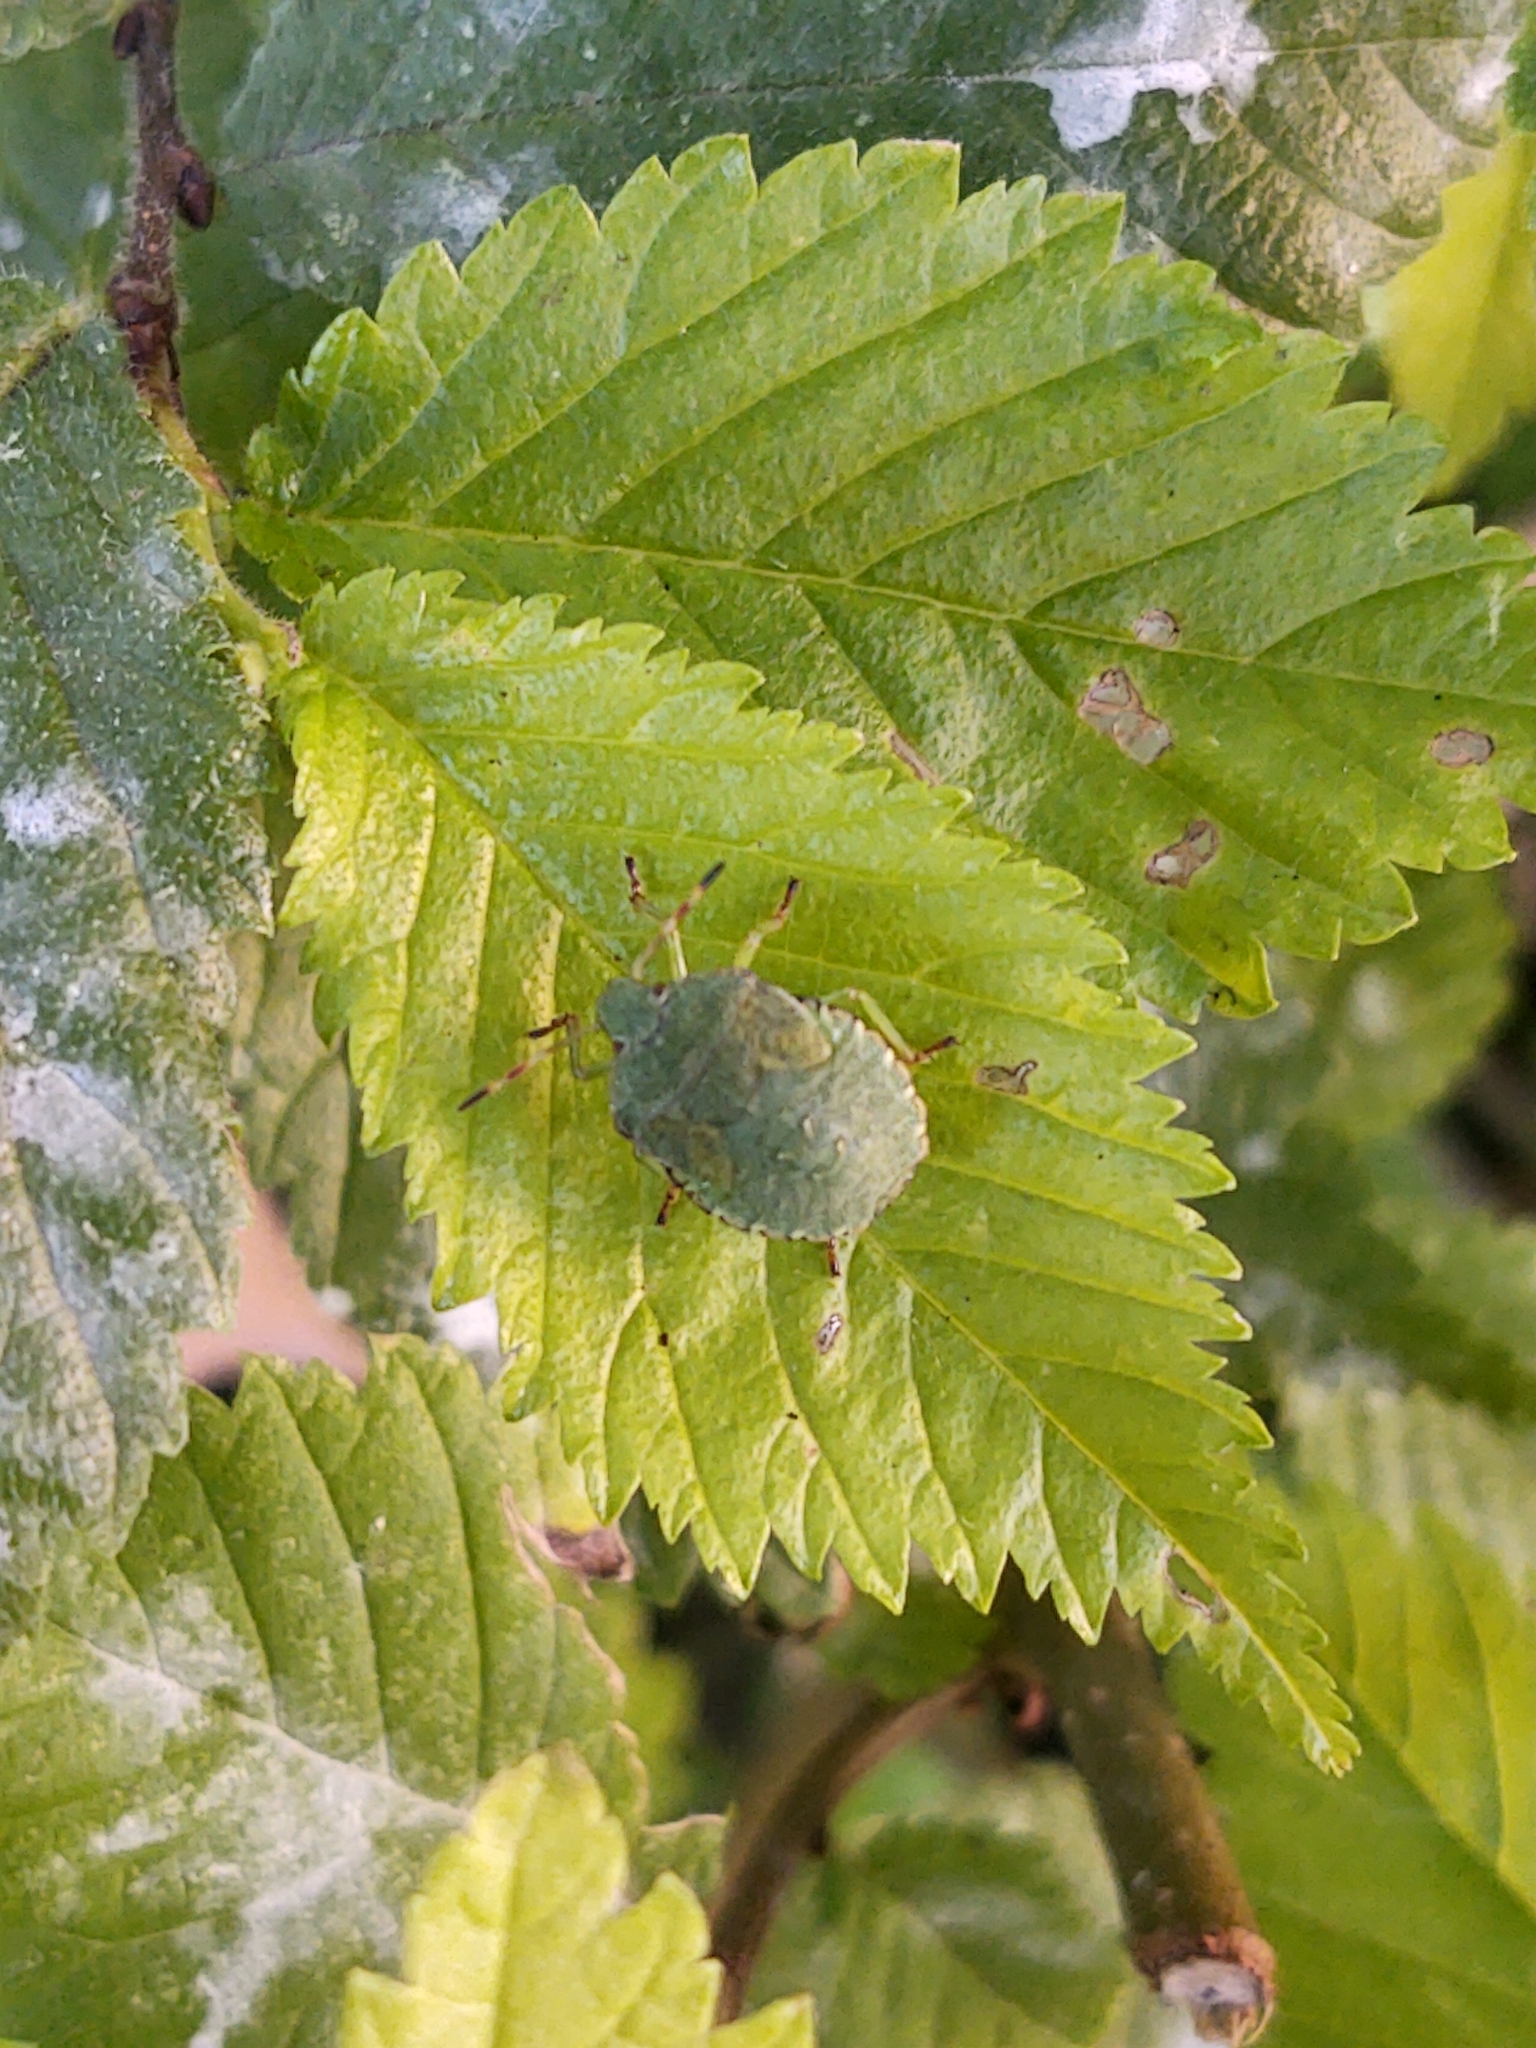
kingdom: Animalia
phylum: Arthropoda
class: Insecta
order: Hemiptera
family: Pentatomidae
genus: Palomena
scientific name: Palomena prasina
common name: Green shieldbug
